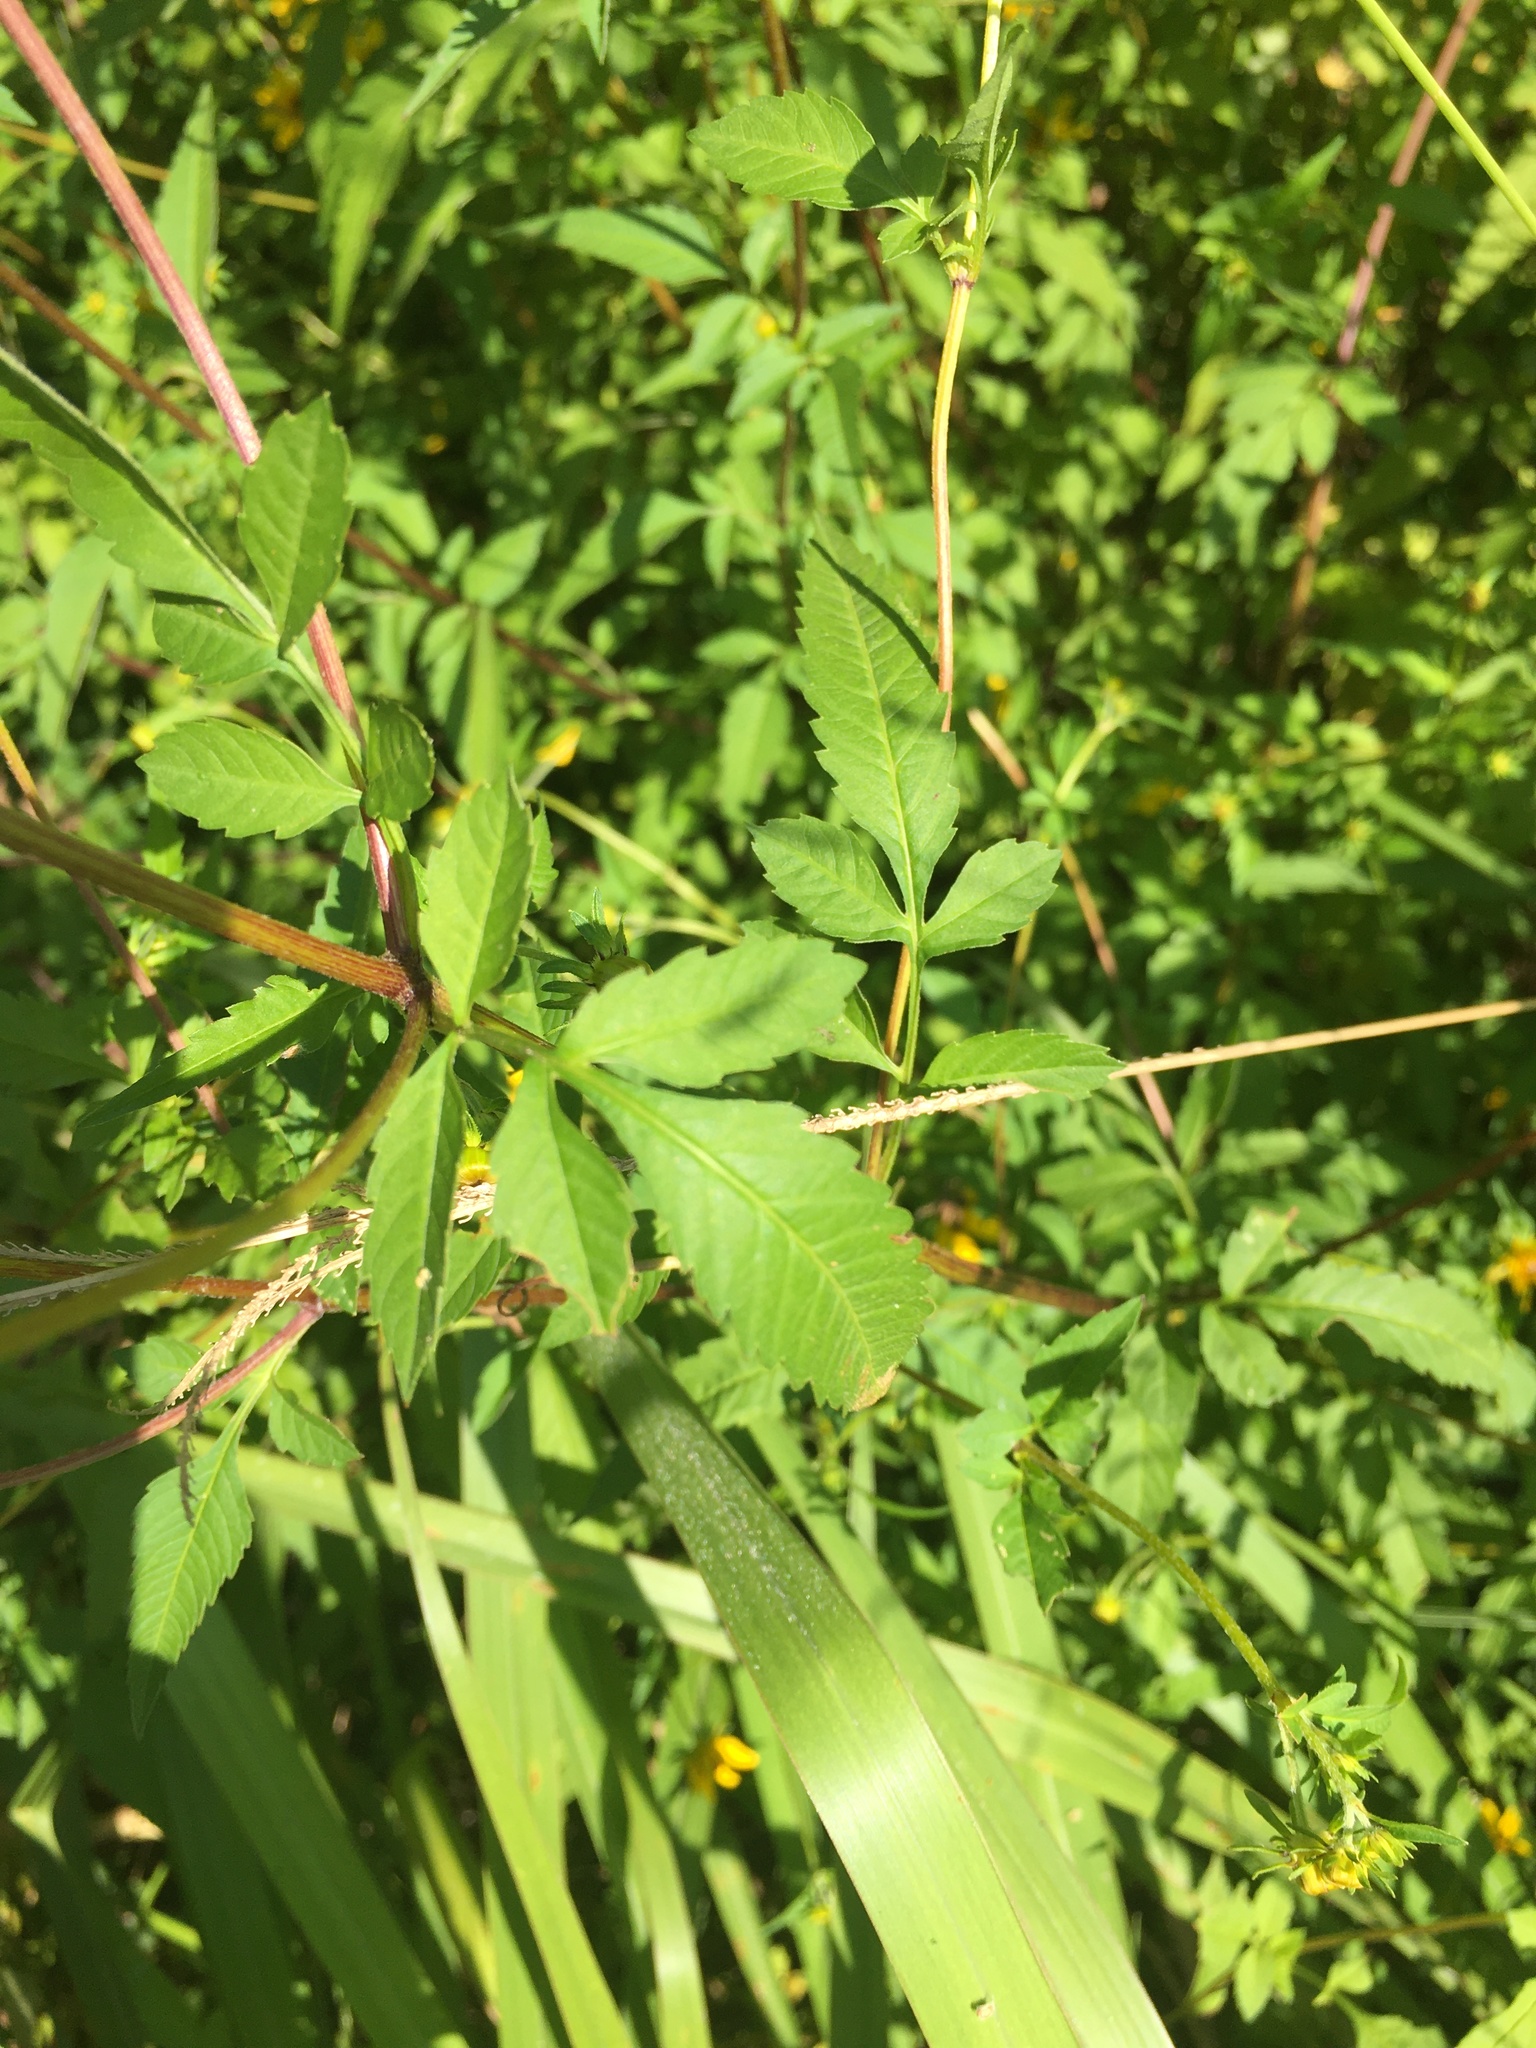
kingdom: Plantae
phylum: Tracheophyta
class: Magnoliopsida
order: Asterales
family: Asteraceae
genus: Bidens
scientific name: Bidens aristosa
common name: Western tickseed
